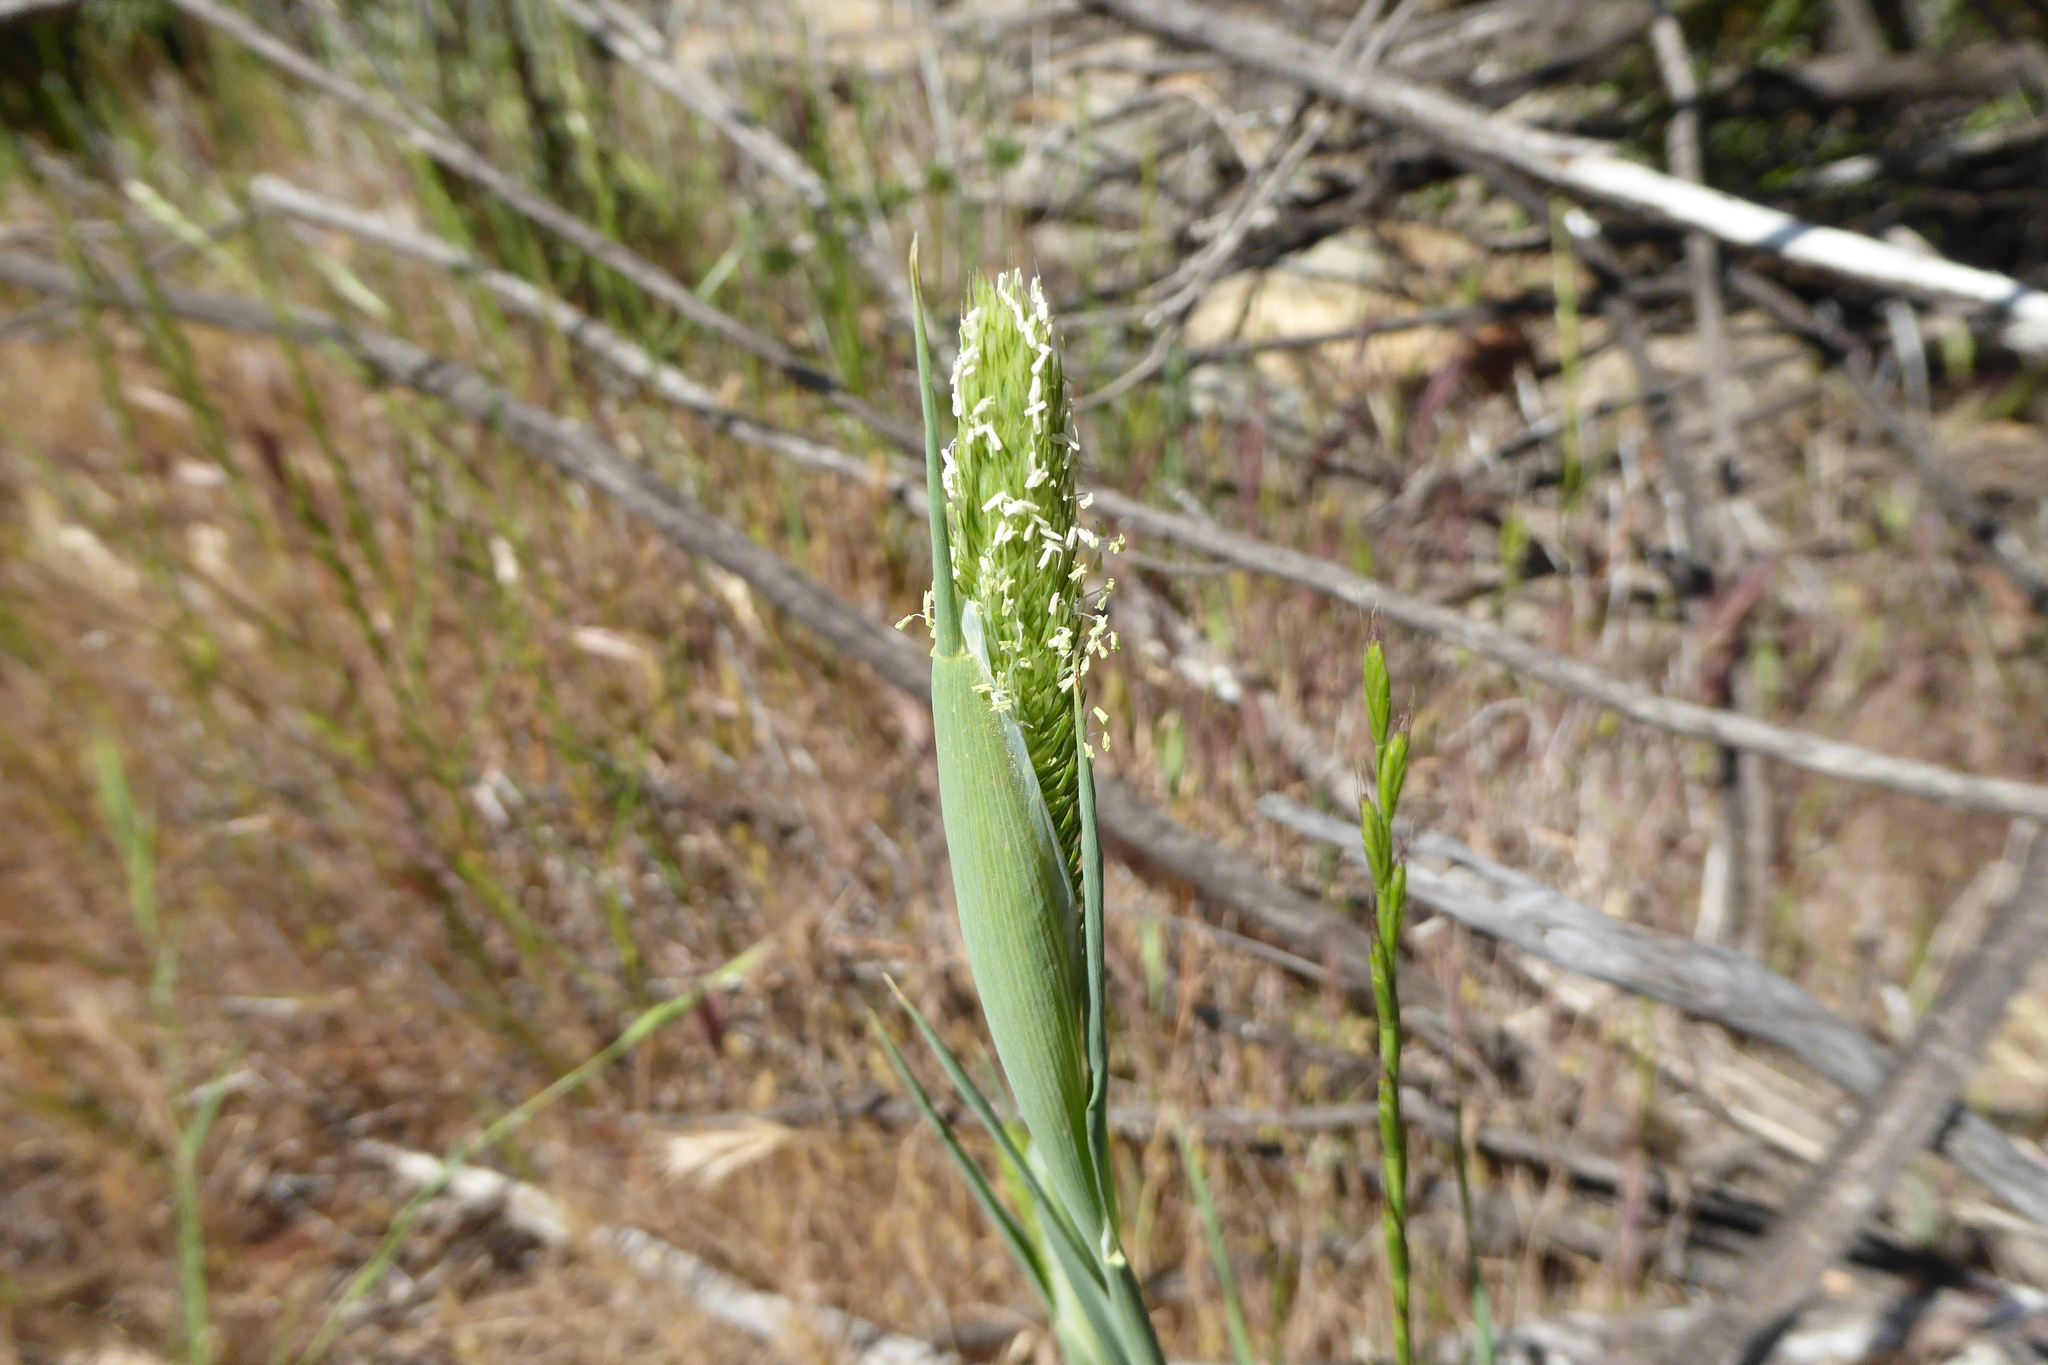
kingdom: Plantae
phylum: Tracheophyta
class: Liliopsida
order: Poales
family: Poaceae
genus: Phalaris
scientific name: Phalaris paradoxa
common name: Awned canary-grass
